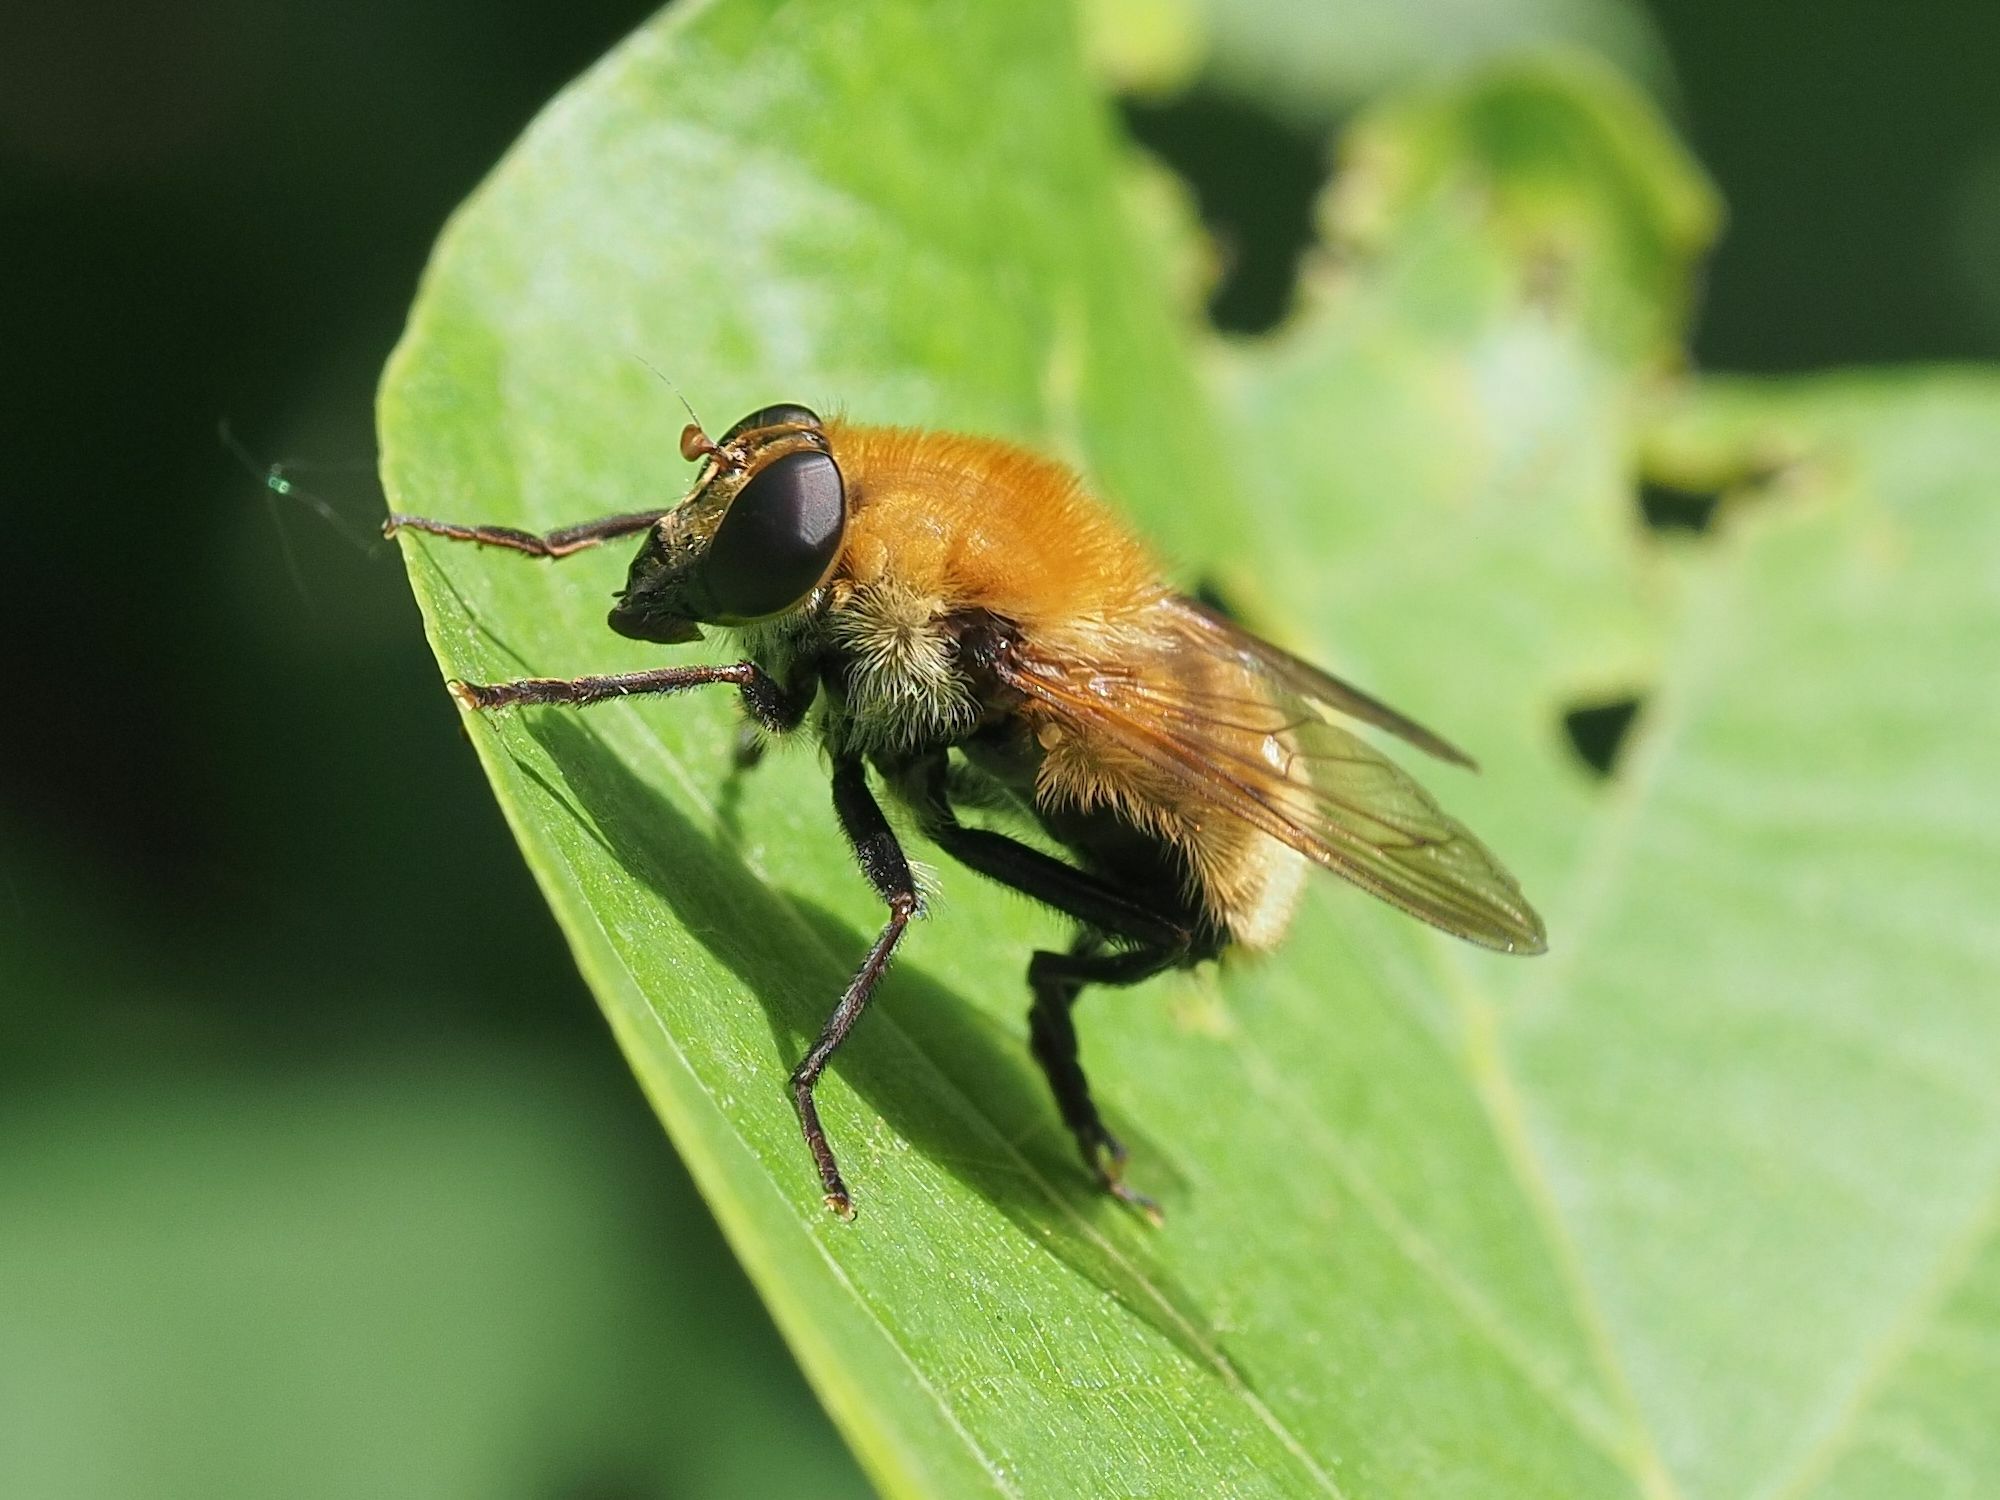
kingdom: Animalia
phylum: Arthropoda
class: Insecta
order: Diptera
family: Syrphidae
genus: Criorhina
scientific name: Criorhina berberina
